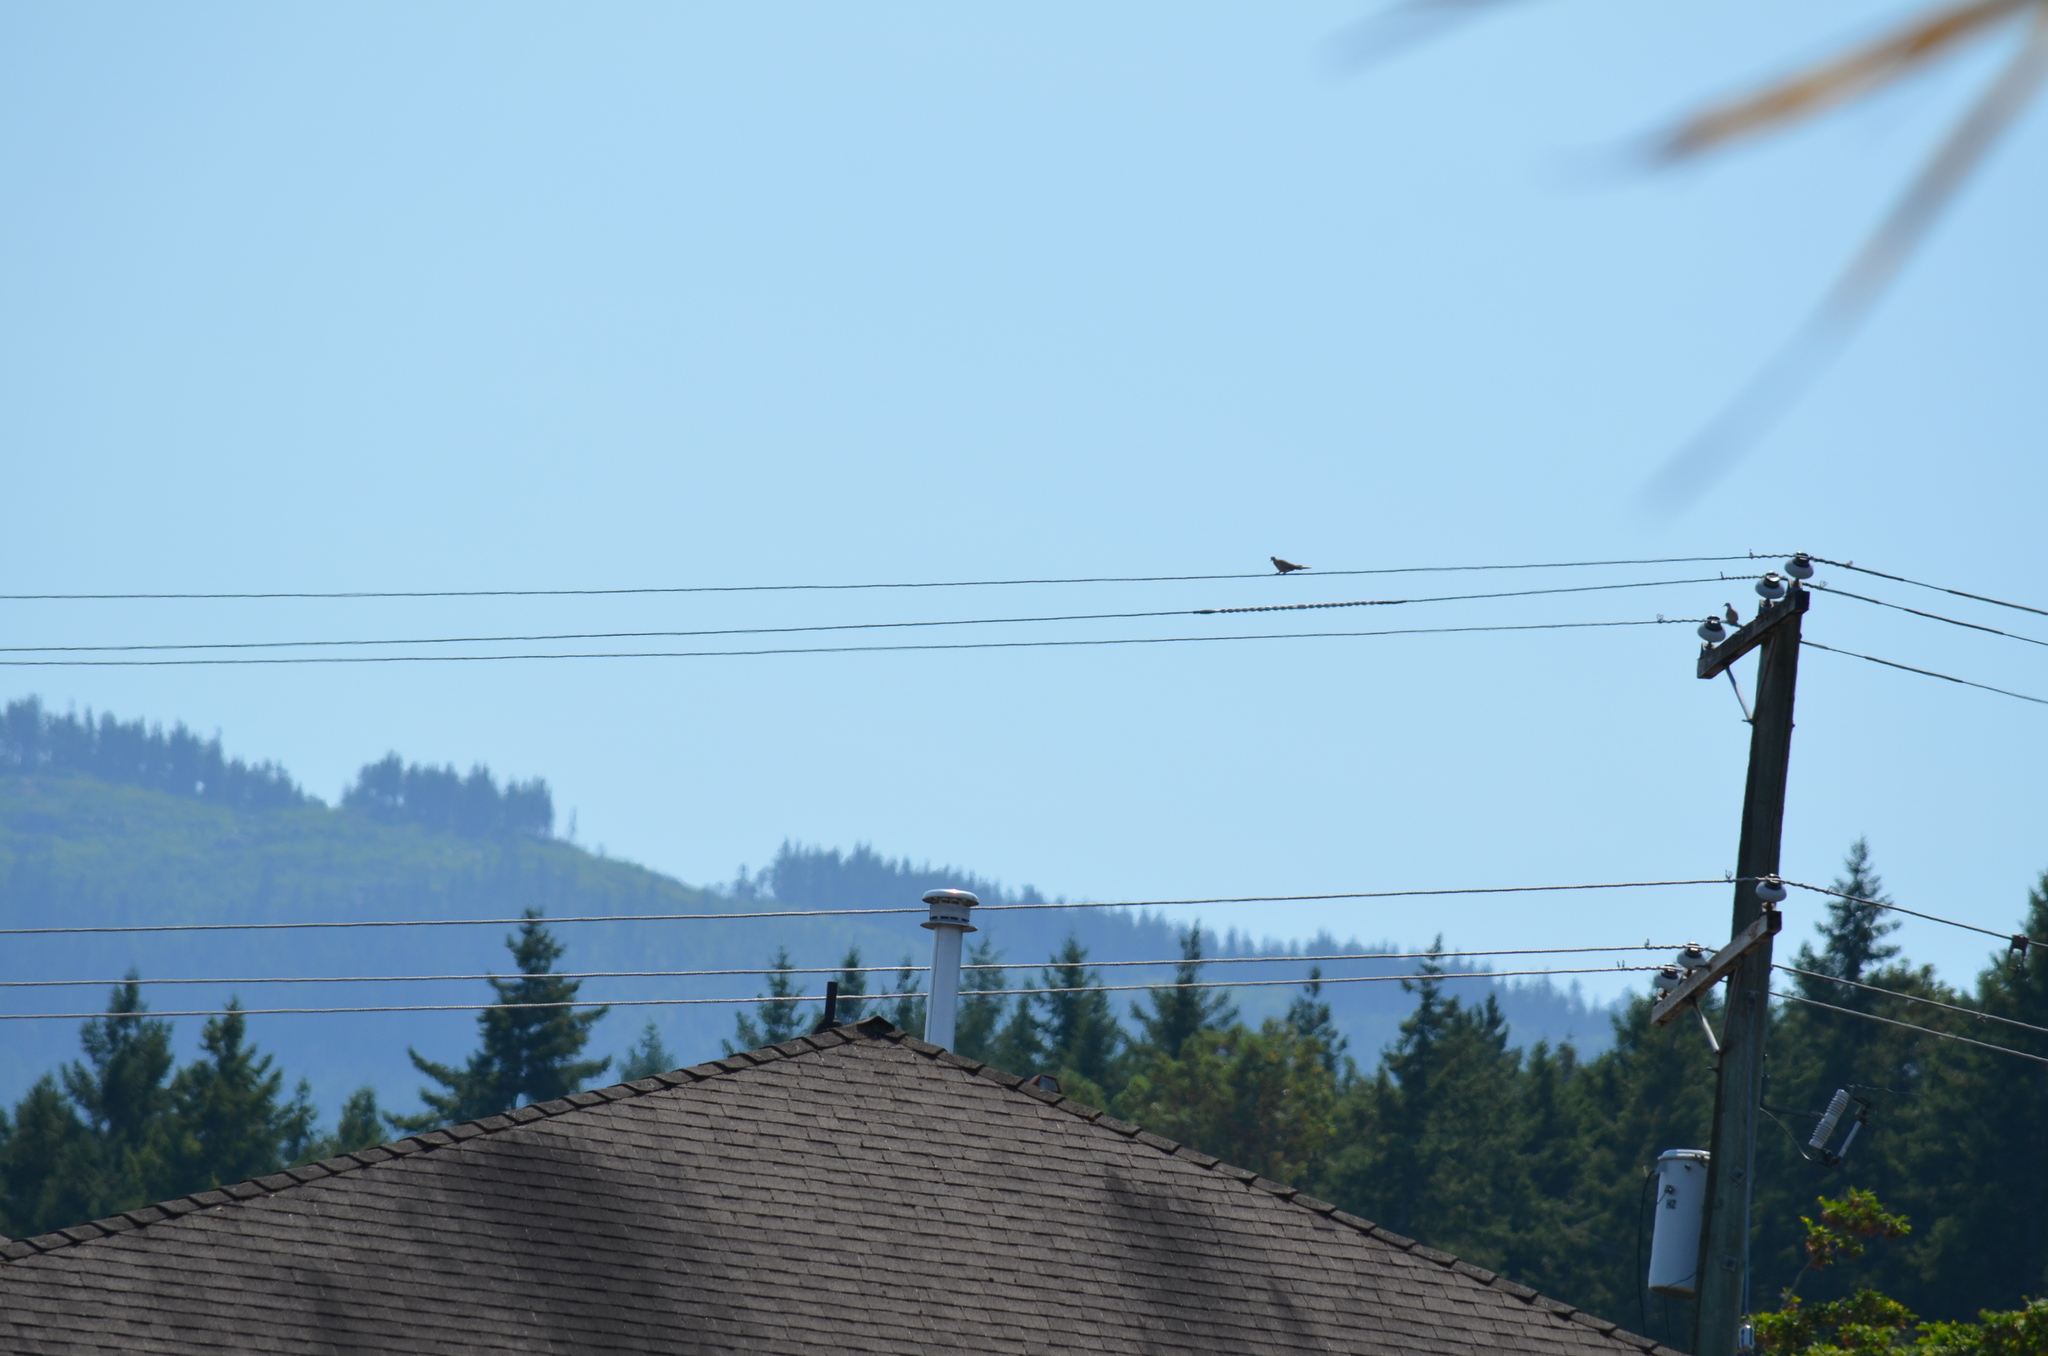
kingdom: Animalia
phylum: Chordata
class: Aves
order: Columbiformes
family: Columbidae
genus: Streptopelia
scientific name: Streptopelia decaocto
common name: Eurasian collared dove
